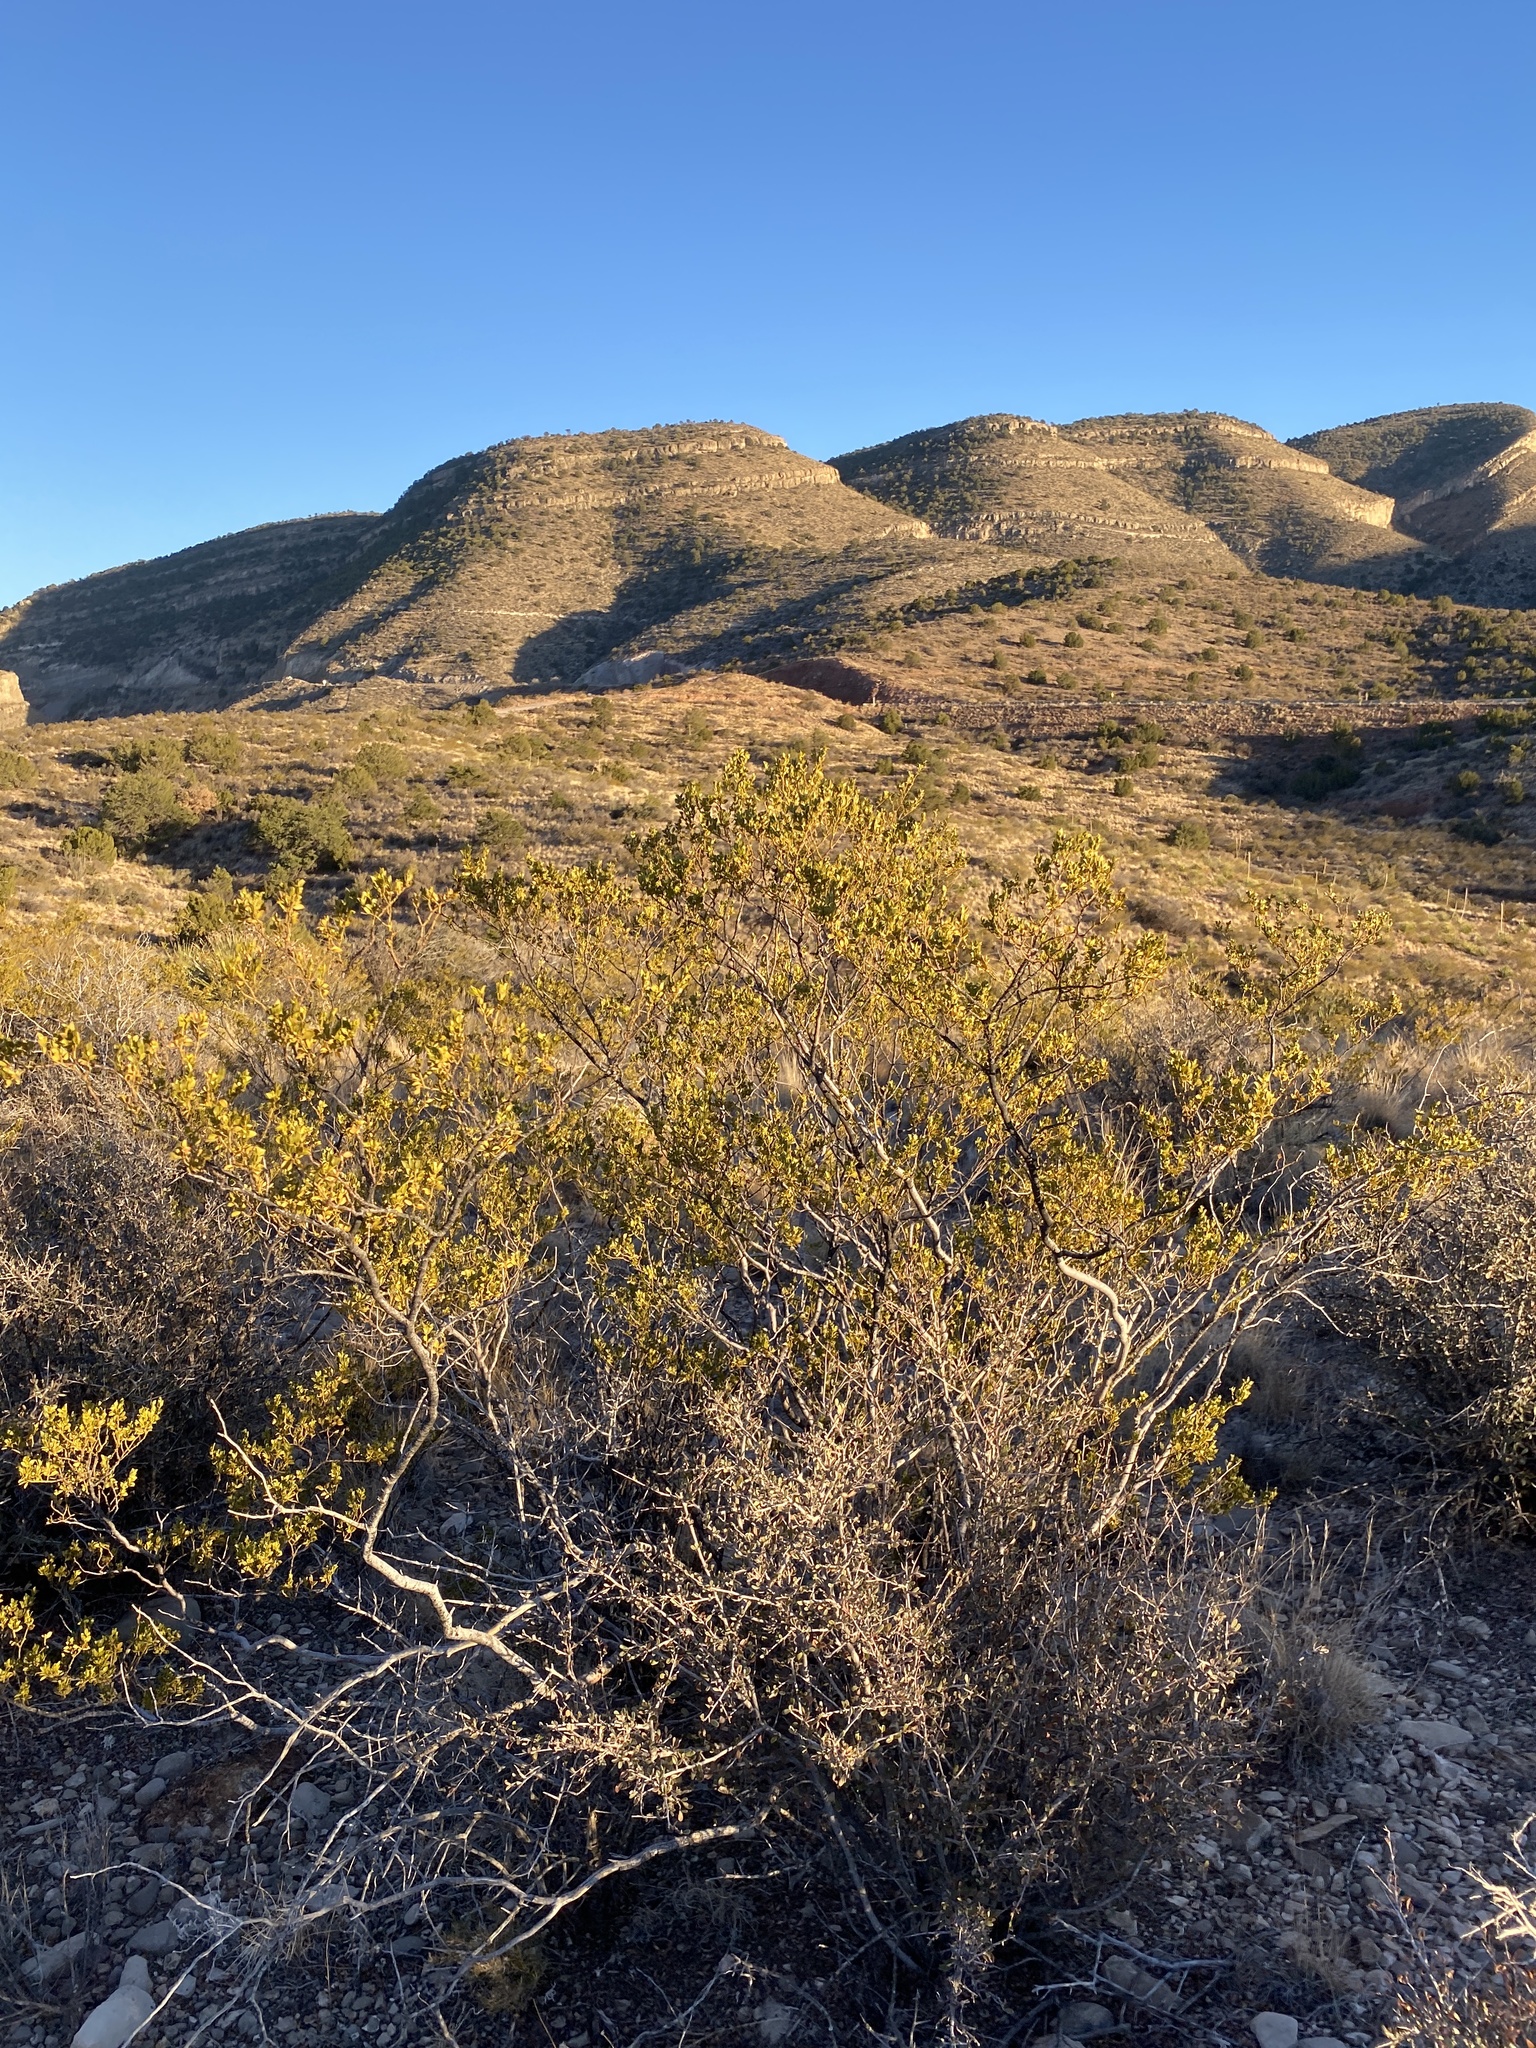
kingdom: Plantae
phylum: Tracheophyta
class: Magnoliopsida
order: Zygophyllales
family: Zygophyllaceae
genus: Larrea
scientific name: Larrea tridentata
